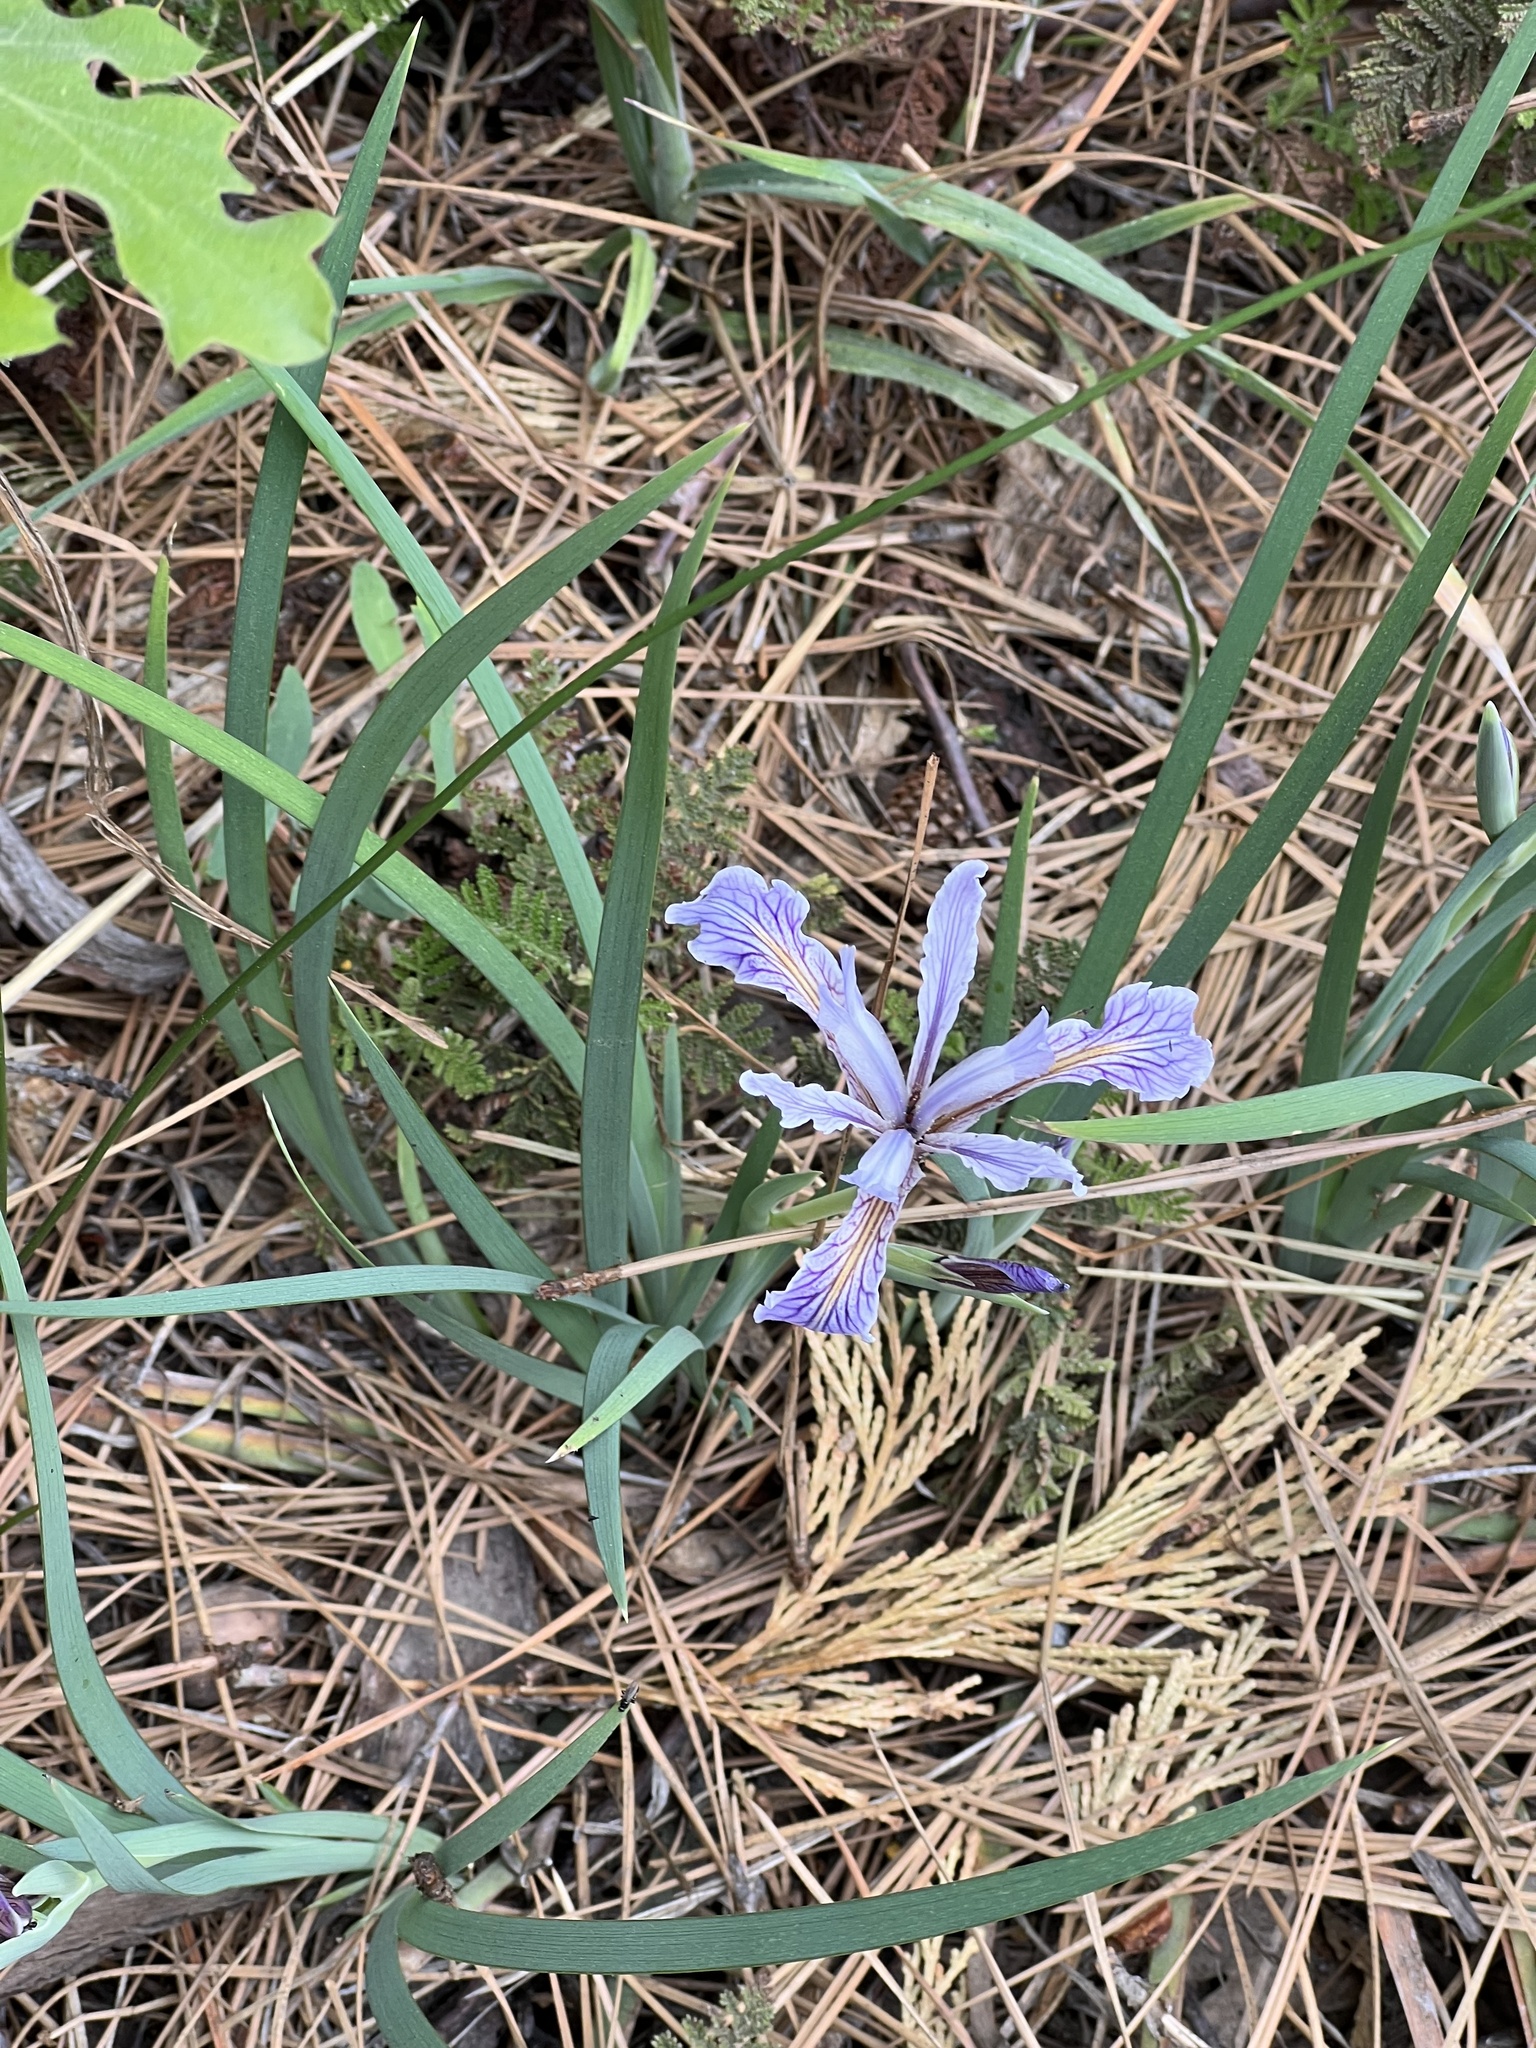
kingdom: Plantae
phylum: Tracheophyta
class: Liliopsida
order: Asparagales
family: Iridaceae
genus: Iris
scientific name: Iris hartwegii
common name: Sierra iris
